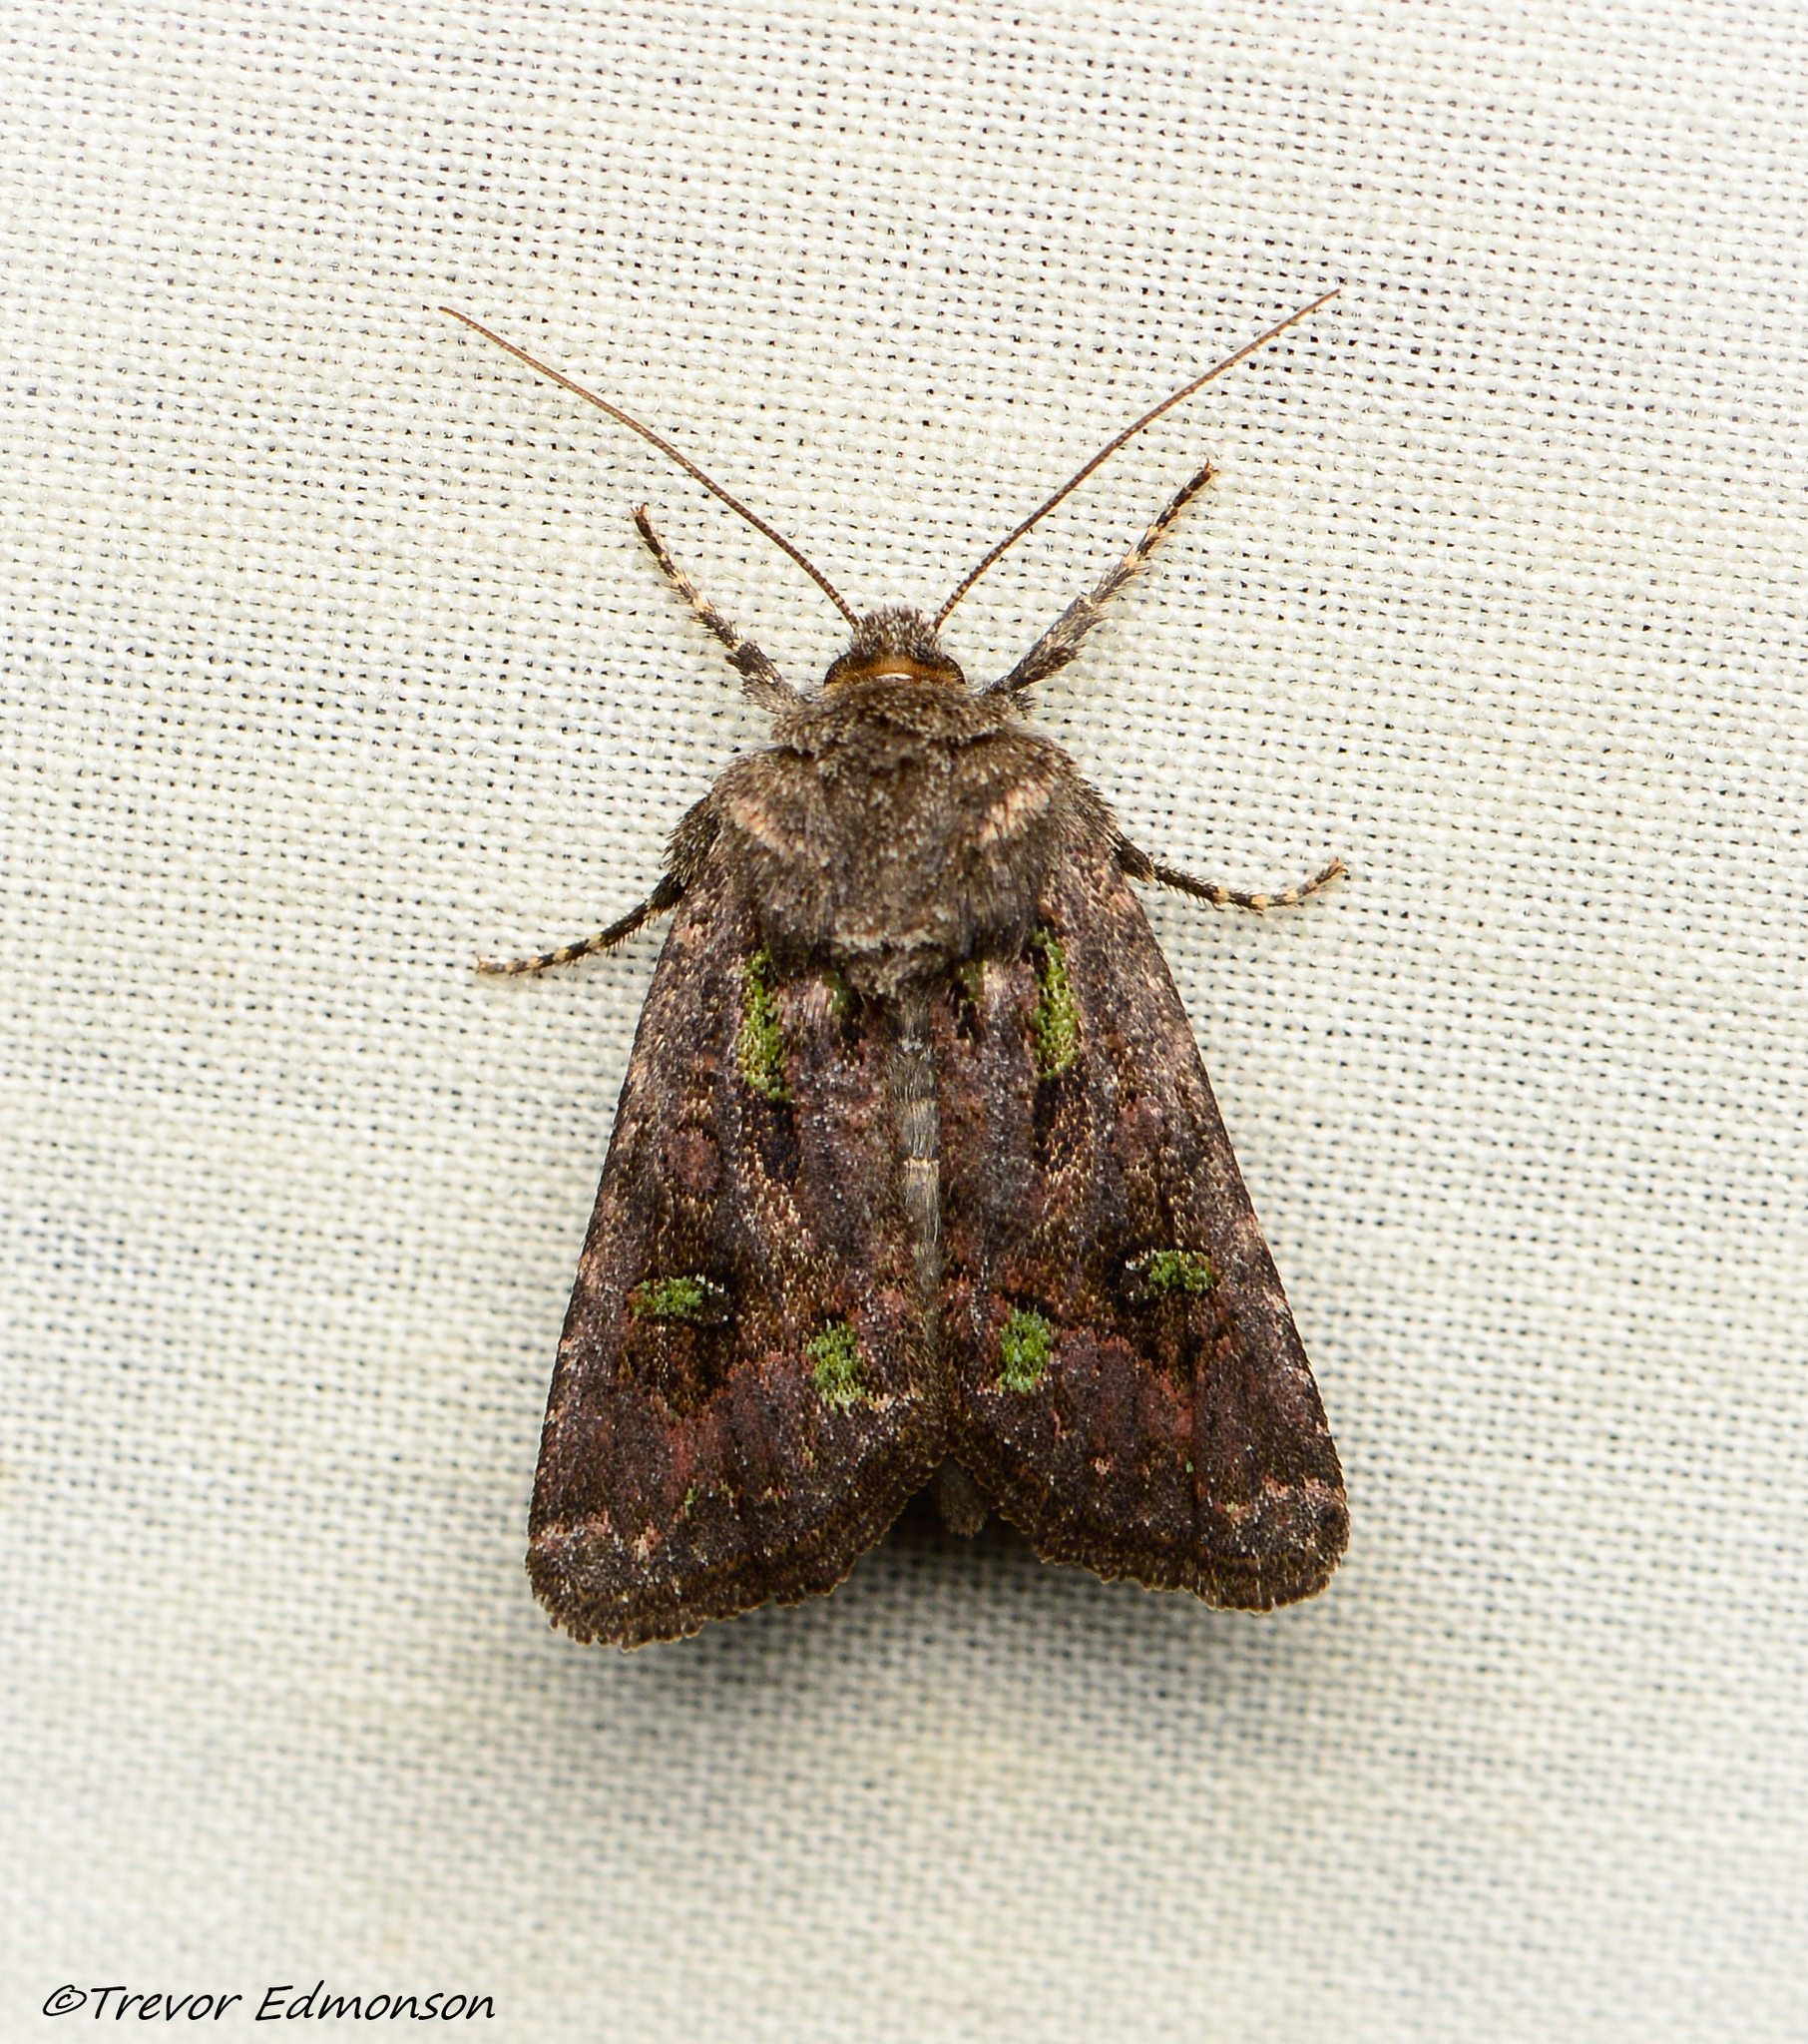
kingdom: Animalia
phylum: Arthropoda
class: Insecta
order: Lepidoptera
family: Noctuidae
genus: Lacinipolia
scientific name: Lacinipolia renigera
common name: Kidney-spotted minor
